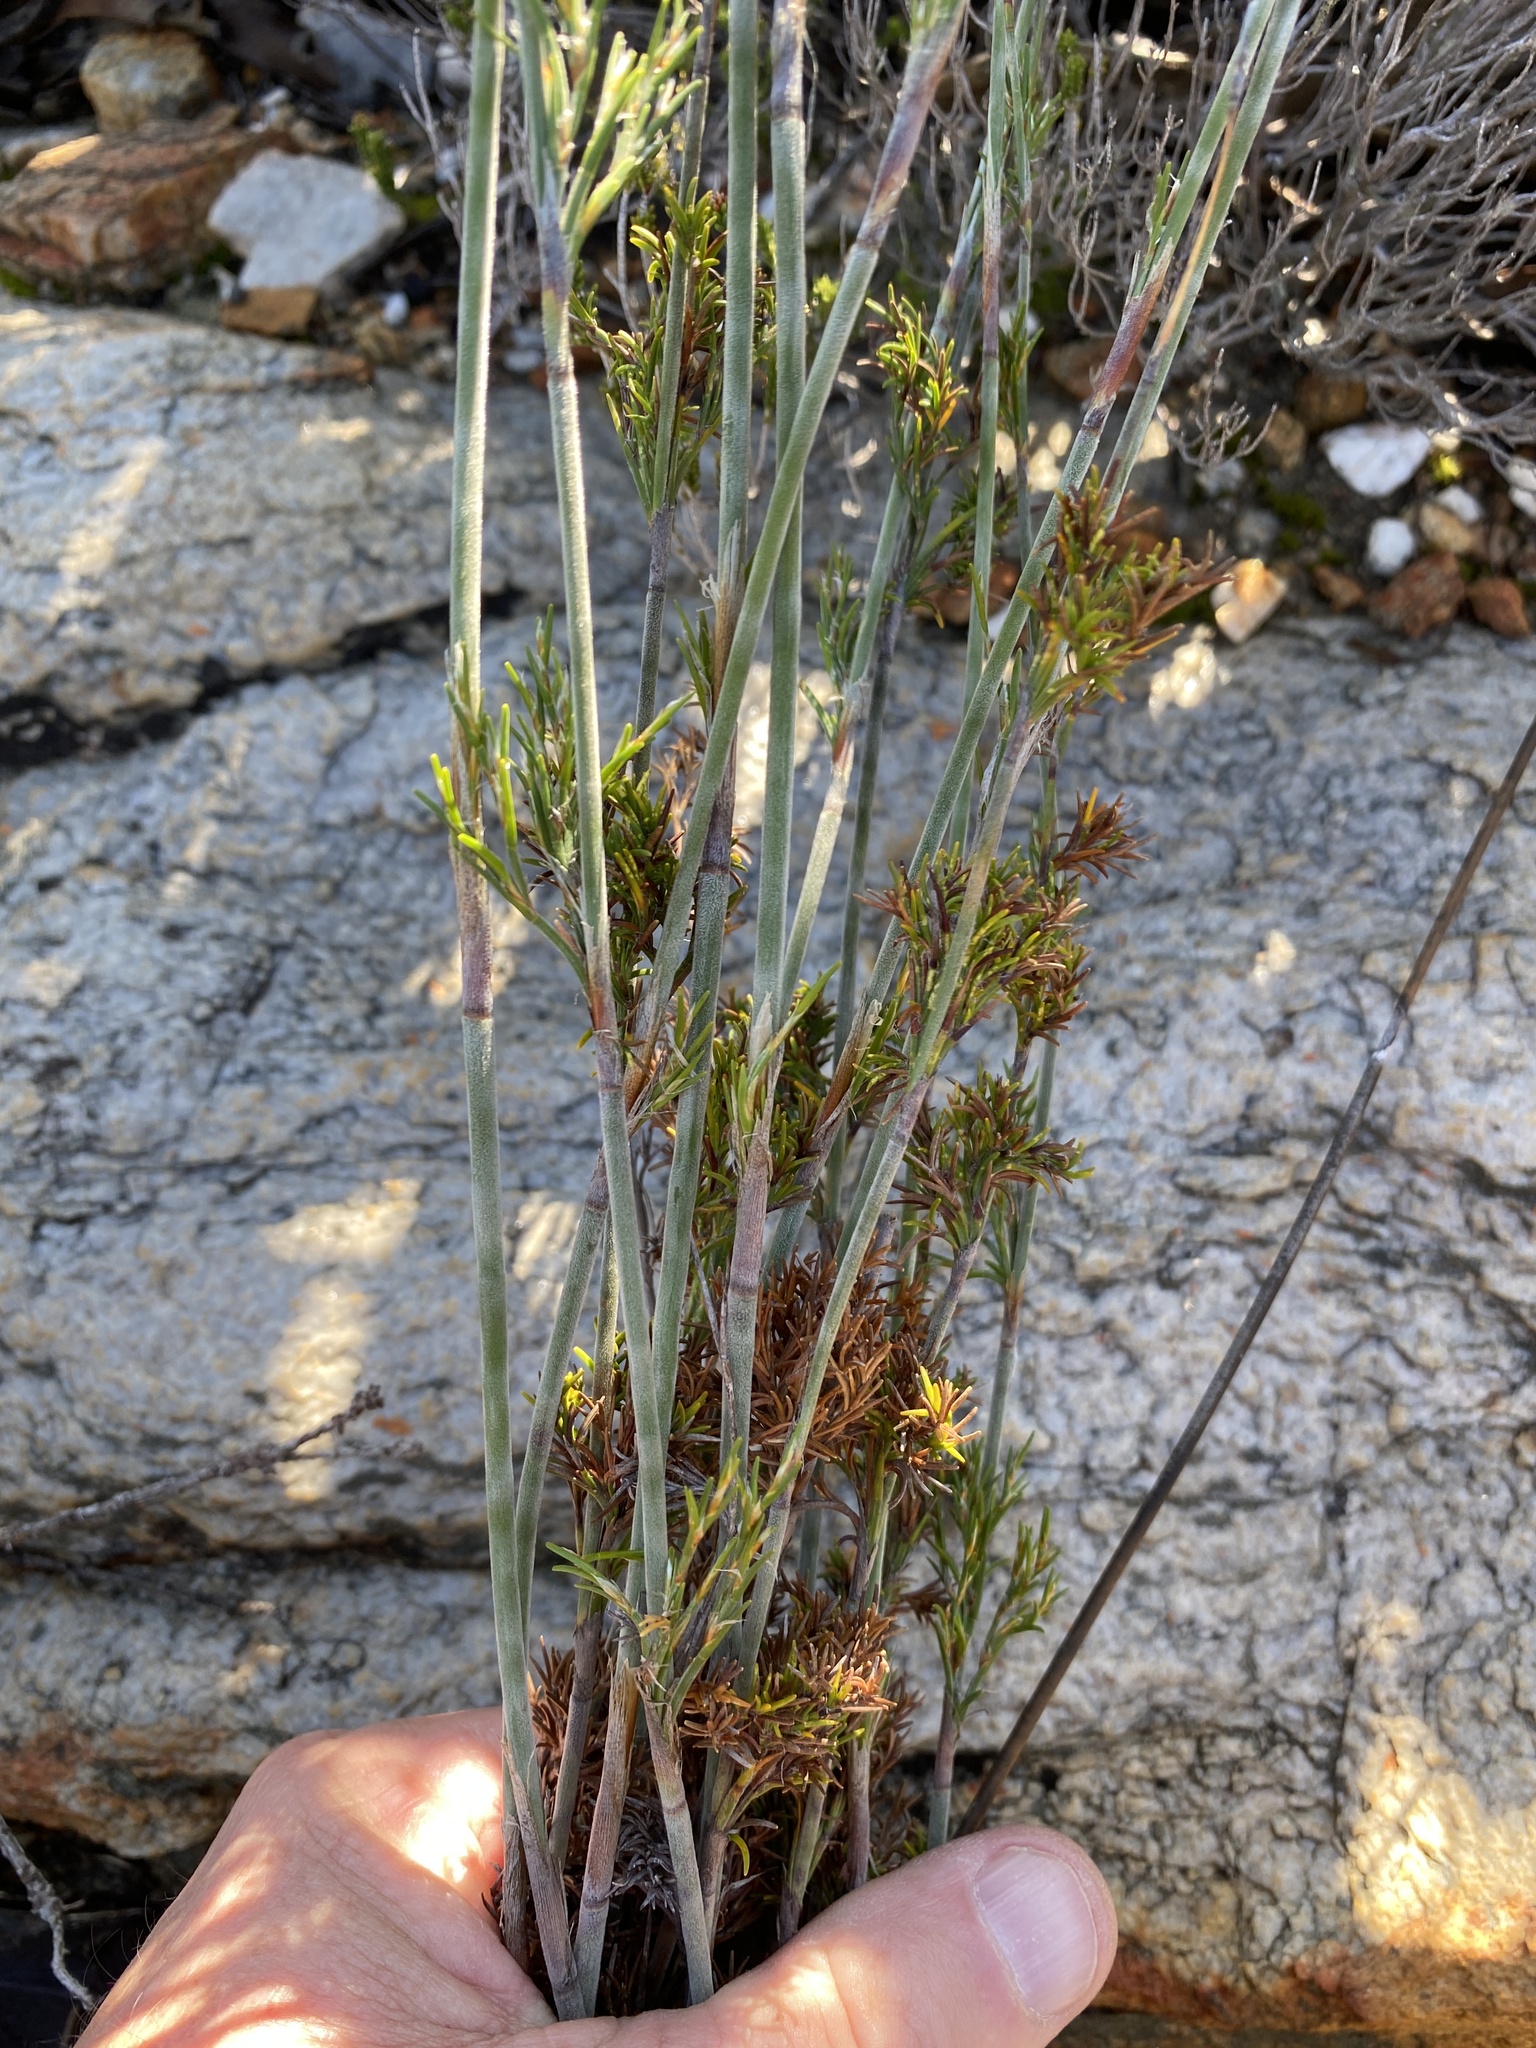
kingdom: Plantae
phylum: Tracheophyta
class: Liliopsida
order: Poales
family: Restionaceae
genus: Thamnochortus
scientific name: Thamnochortus rigidus
